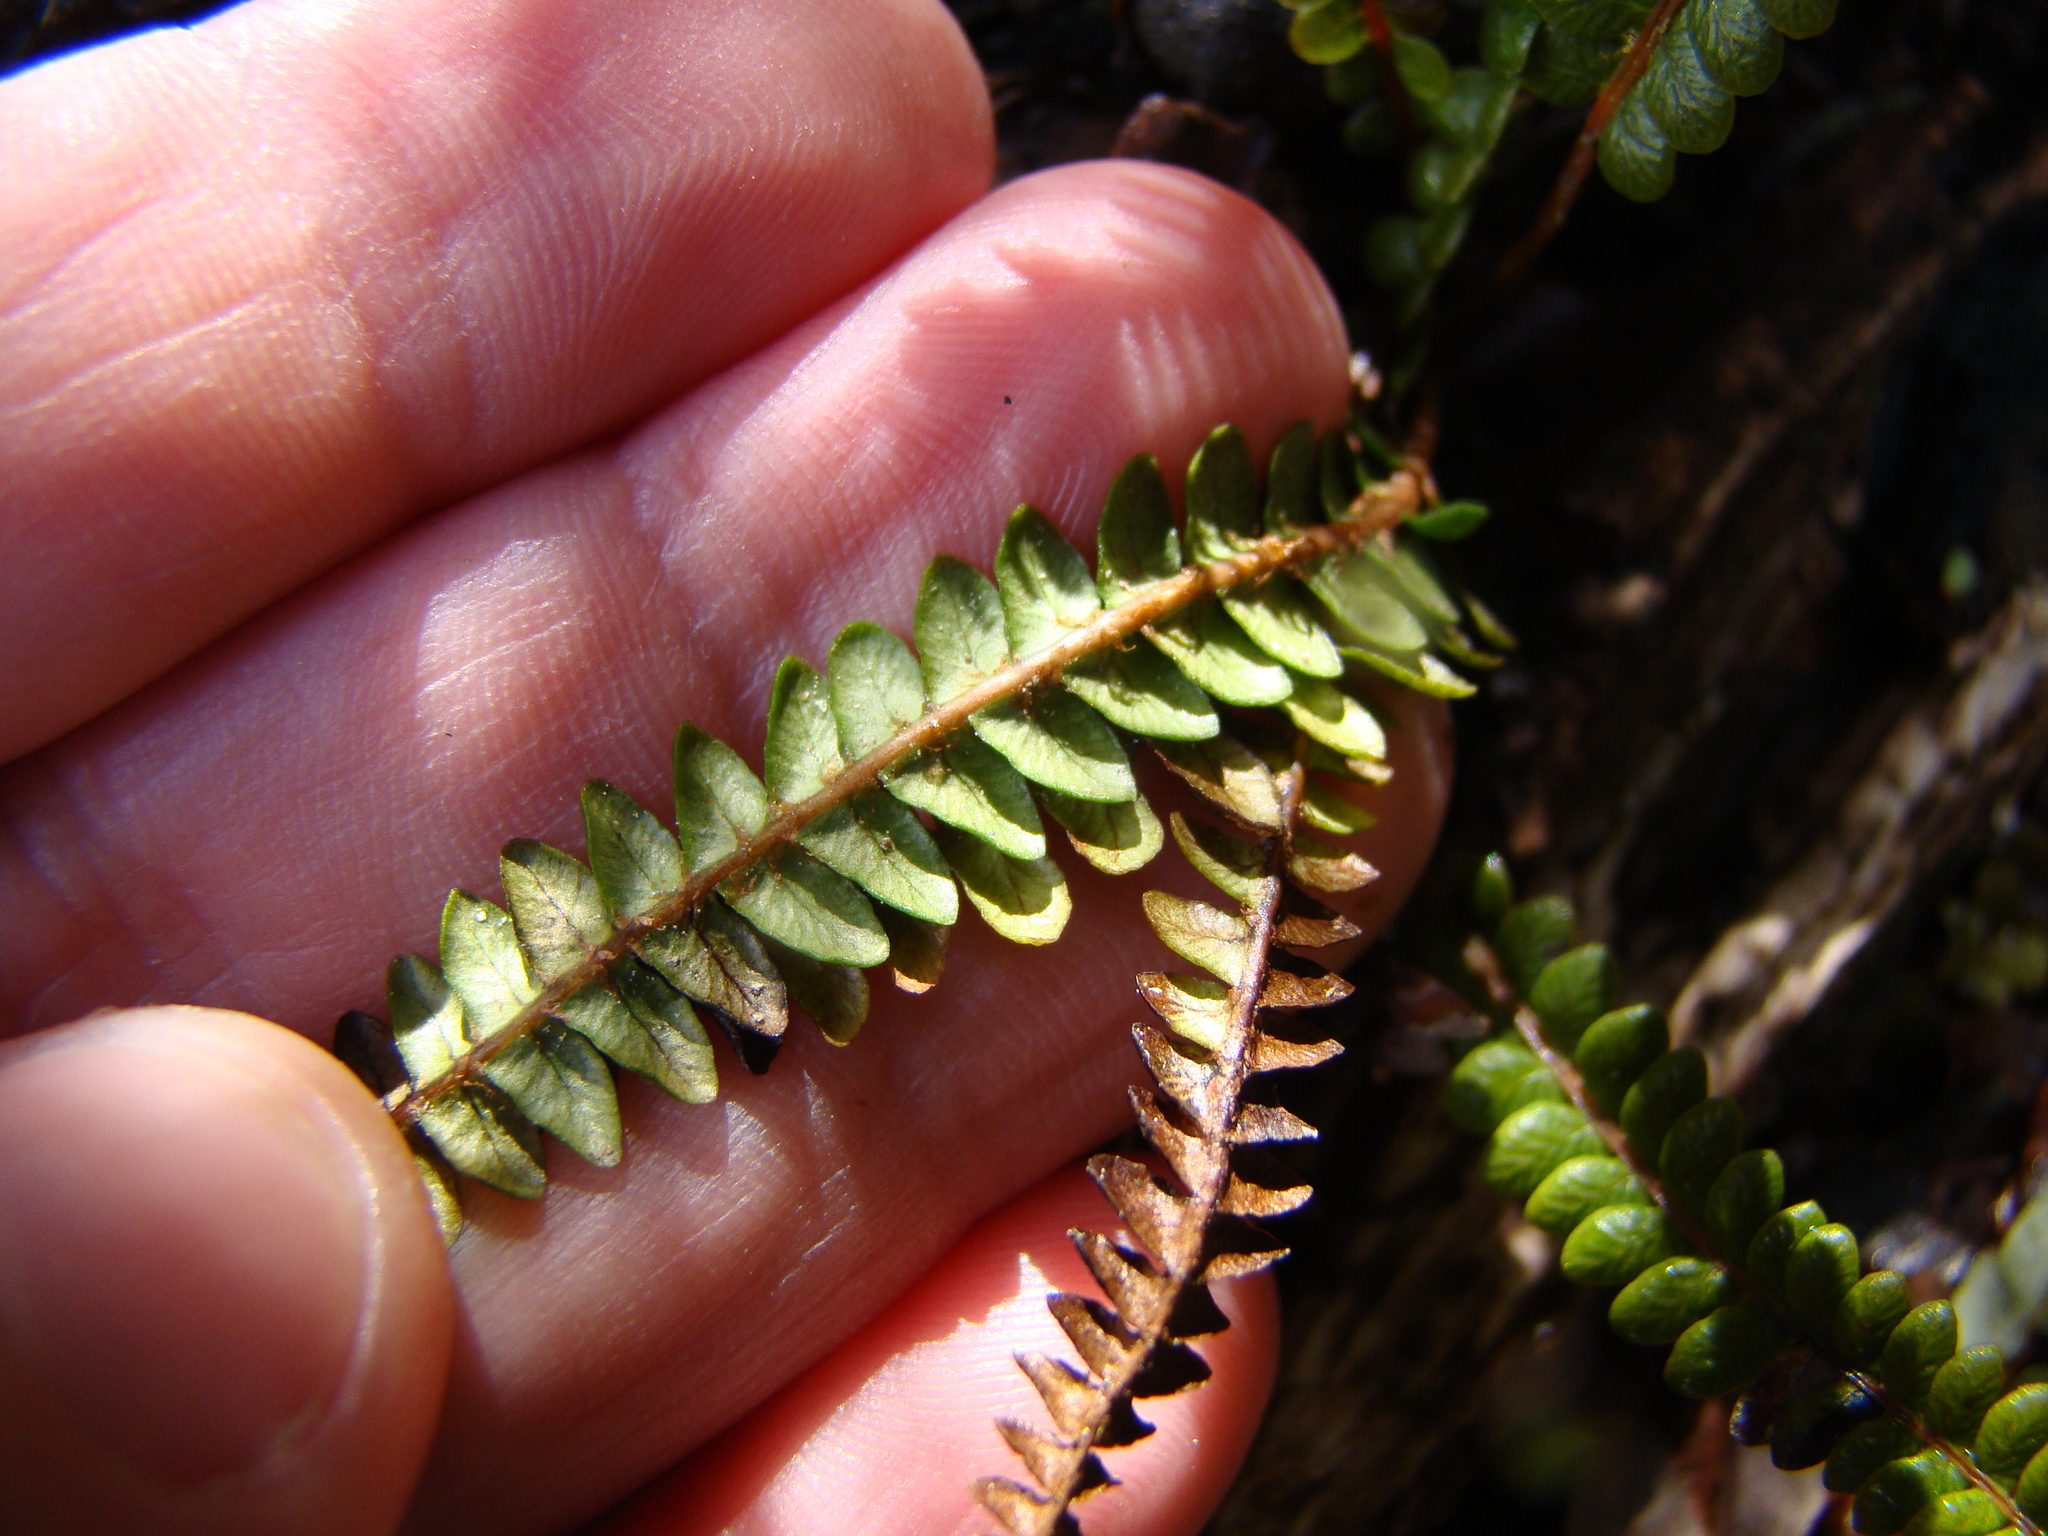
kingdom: Plantae
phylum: Tracheophyta
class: Polypodiopsida
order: Polypodiales
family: Blechnaceae
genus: Austroblechnum
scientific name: Austroblechnum penna-marina
